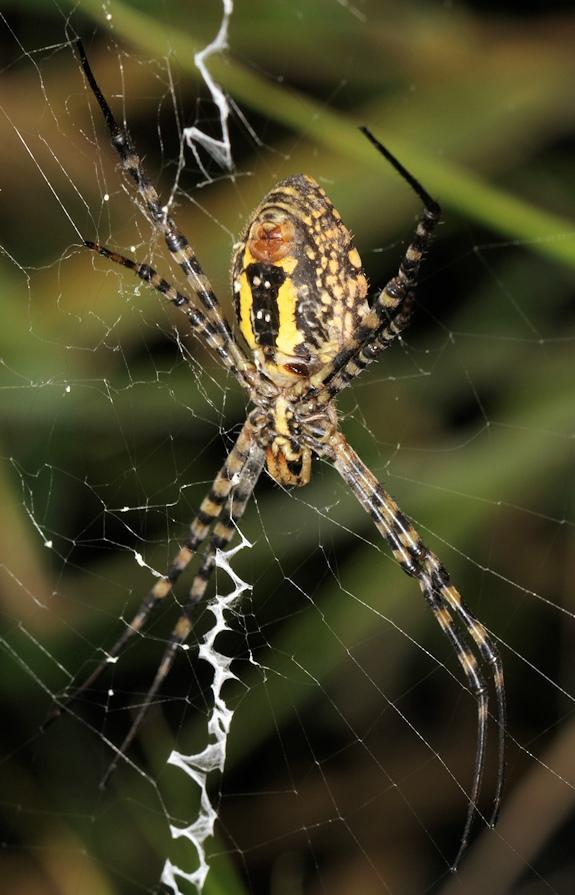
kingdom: Animalia
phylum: Arthropoda
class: Arachnida
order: Araneae
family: Araneidae
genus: Argiope
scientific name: Argiope trifasciata
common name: Banded garden spider
